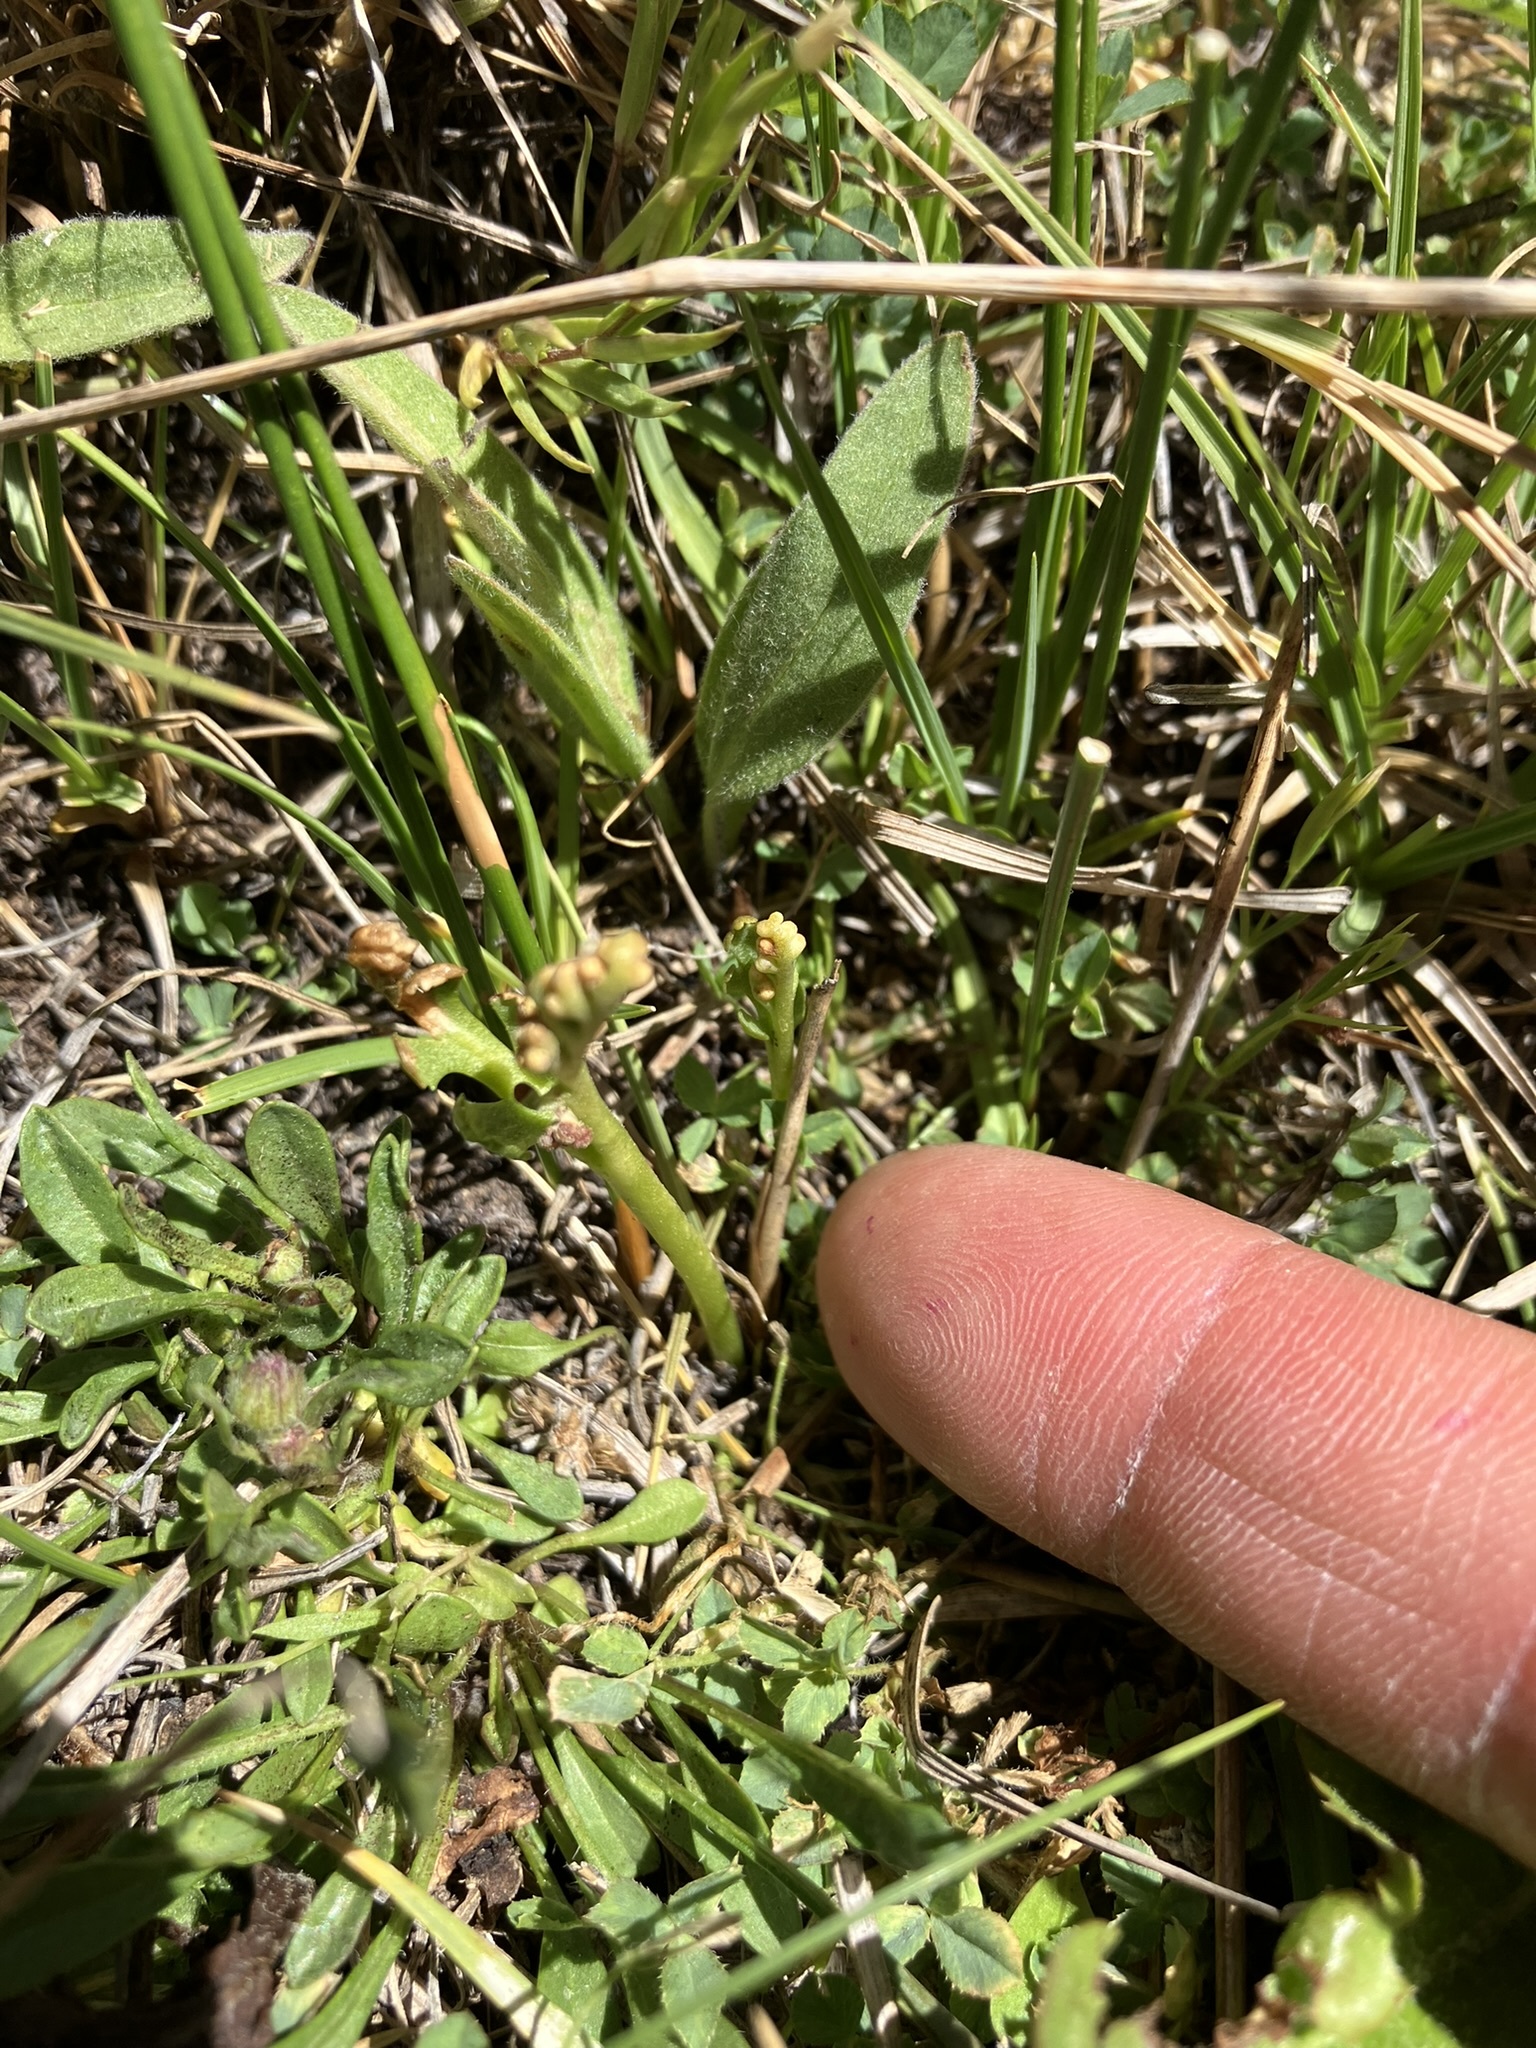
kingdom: Plantae
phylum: Tracheophyta
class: Polypodiopsida
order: Ophioglossales
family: Ophioglossaceae
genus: Botrychium
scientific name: Botrychium ascendens
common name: Ascending grapefern
